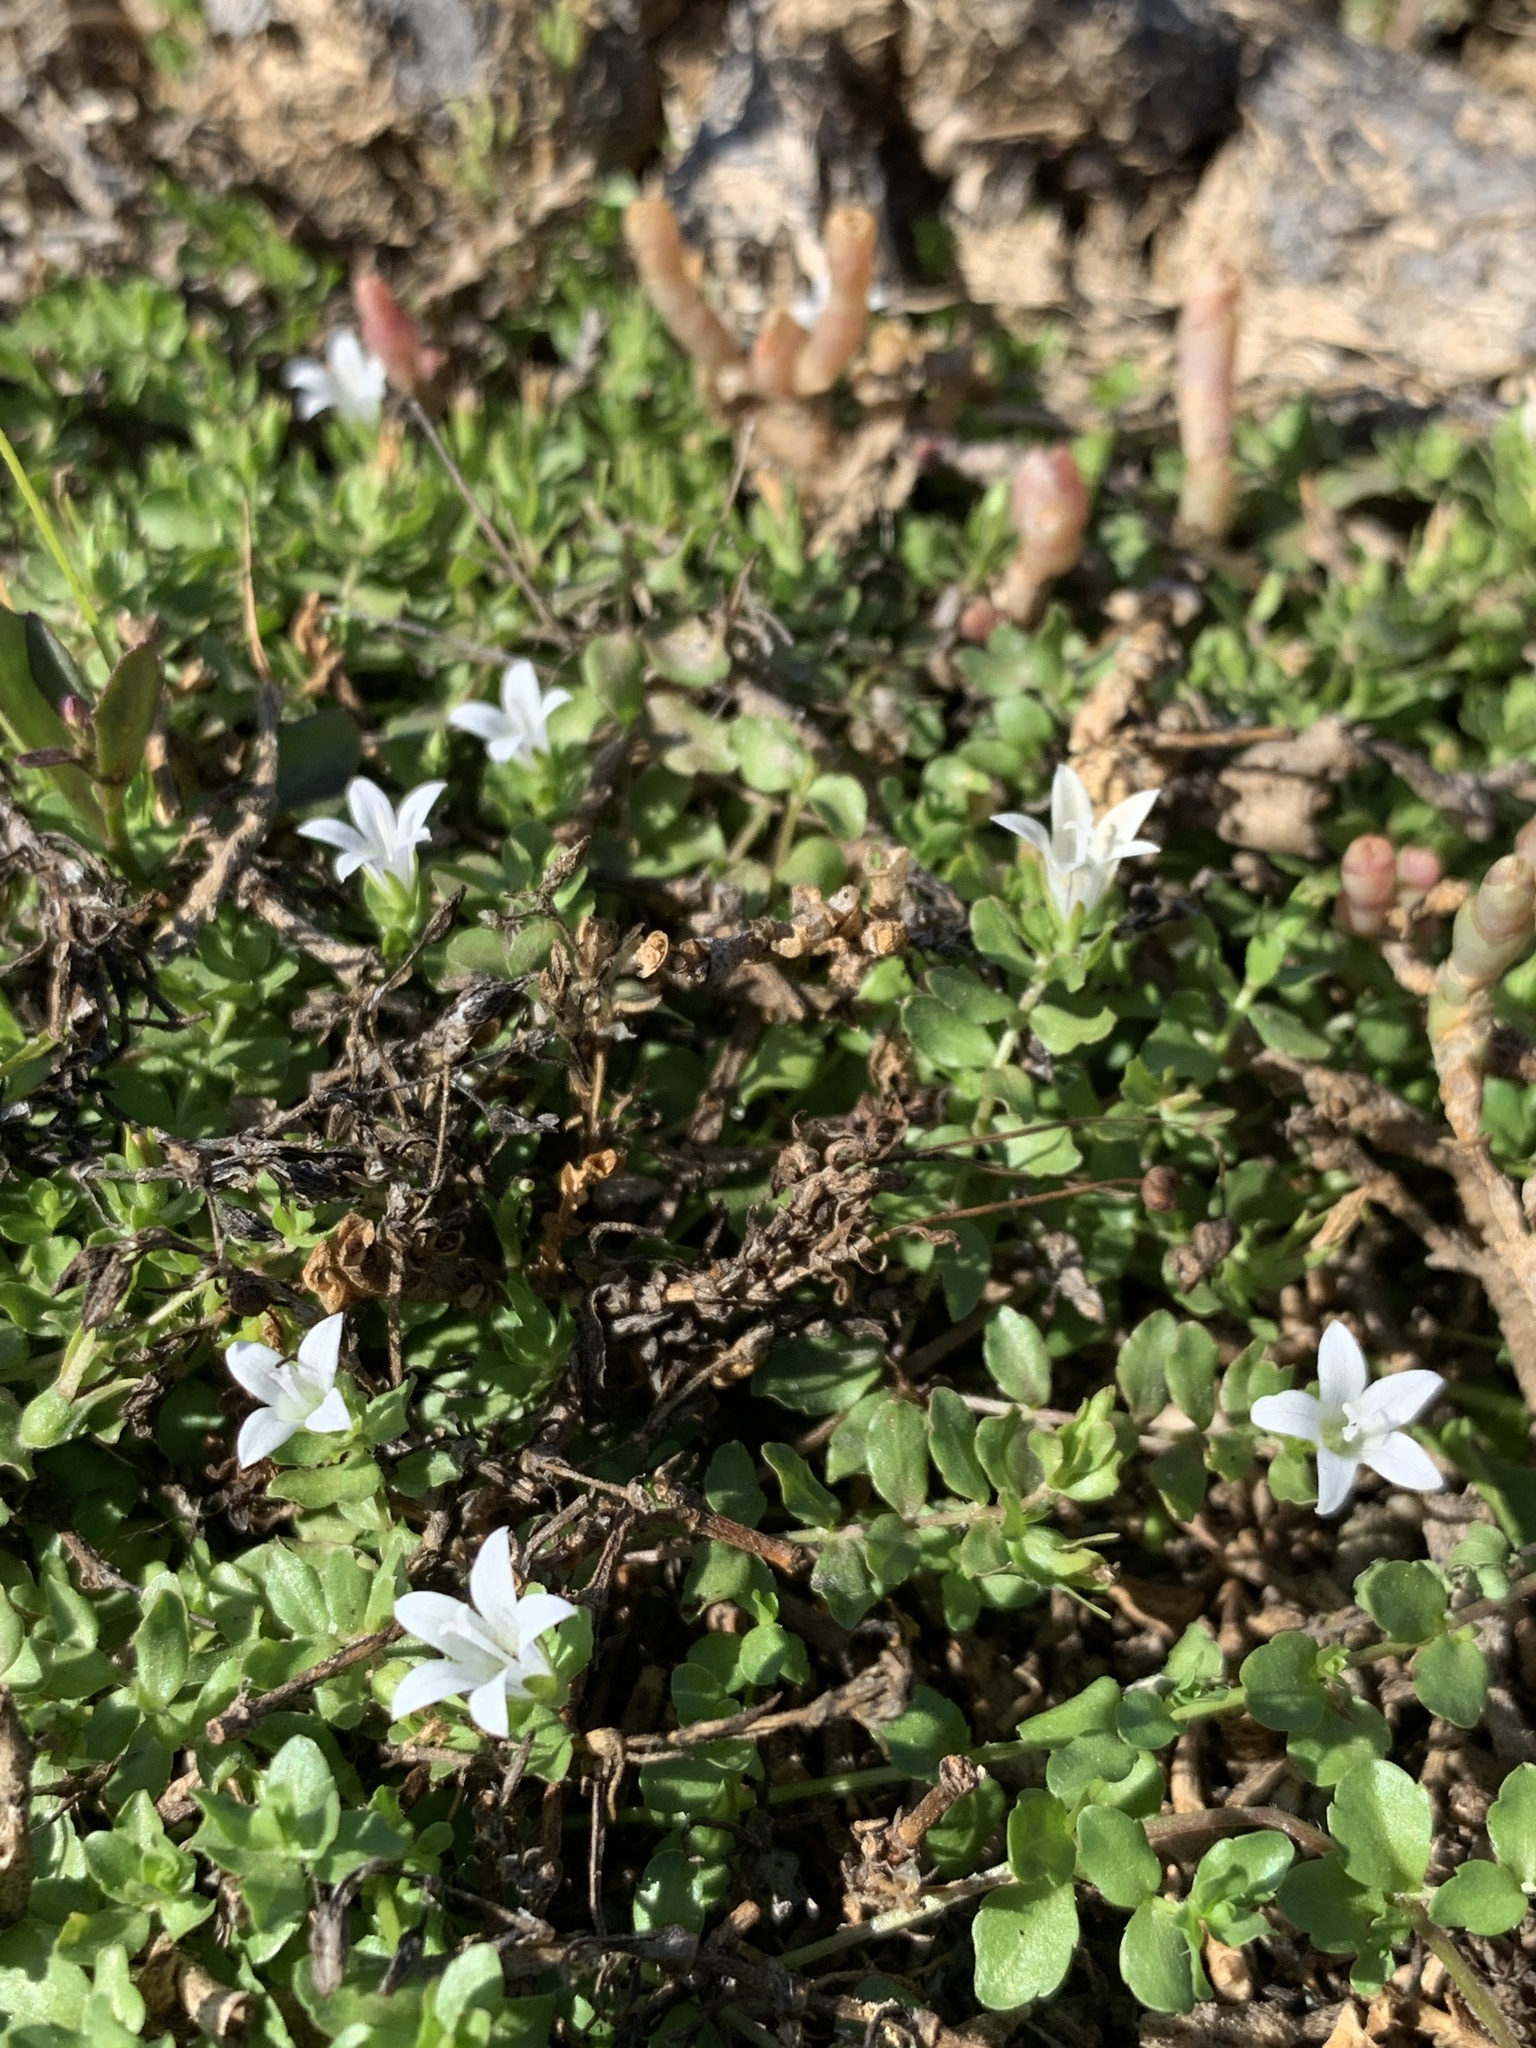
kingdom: Plantae
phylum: Tracheophyta
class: Magnoliopsida
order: Asterales
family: Campanulaceae
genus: Wahlenbergia
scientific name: Wahlenbergia procumbens
